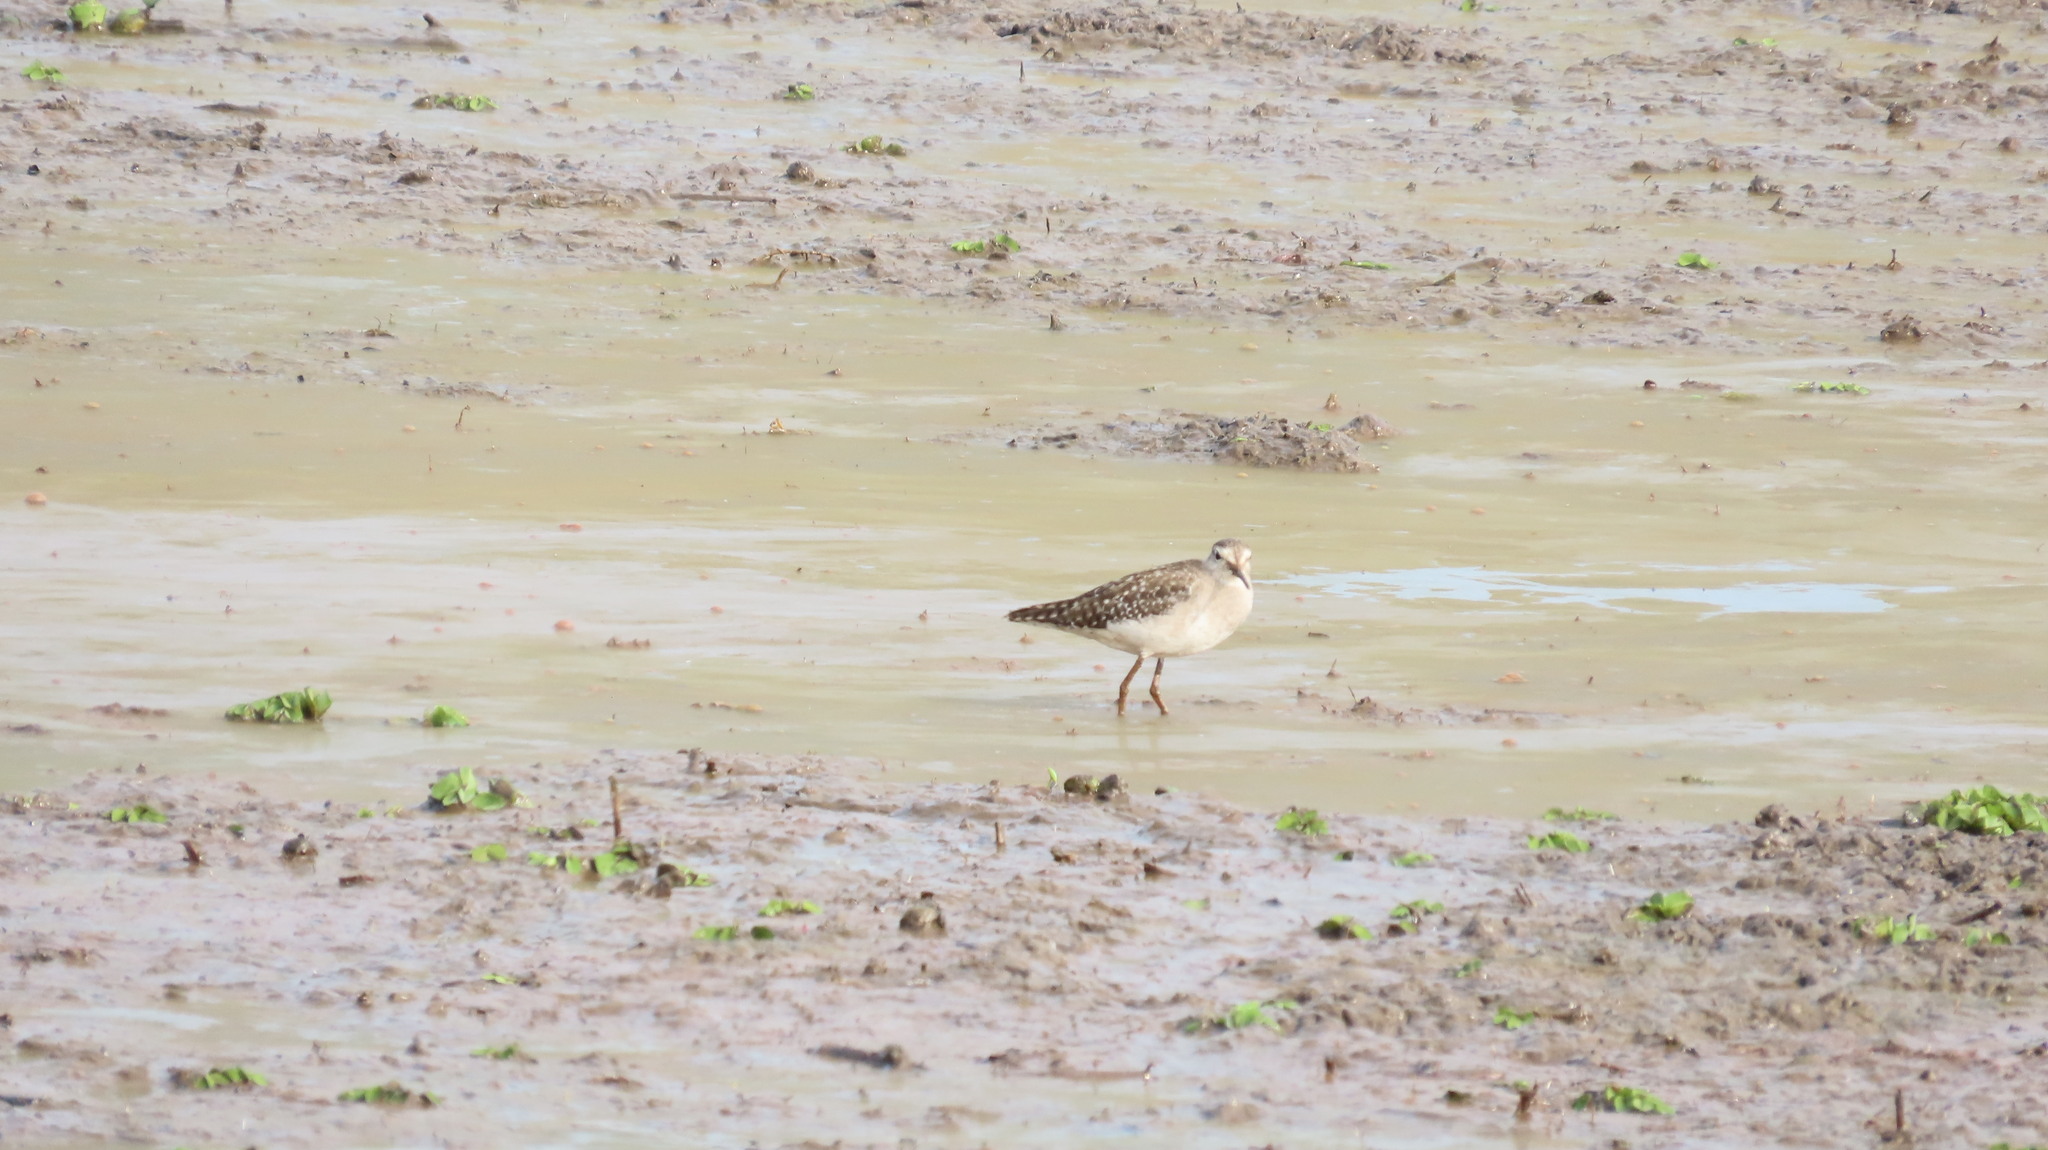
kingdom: Animalia
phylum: Chordata
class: Aves
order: Charadriiformes
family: Scolopacidae
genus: Tringa
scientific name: Tringa glareola
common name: Wood sandpiper
